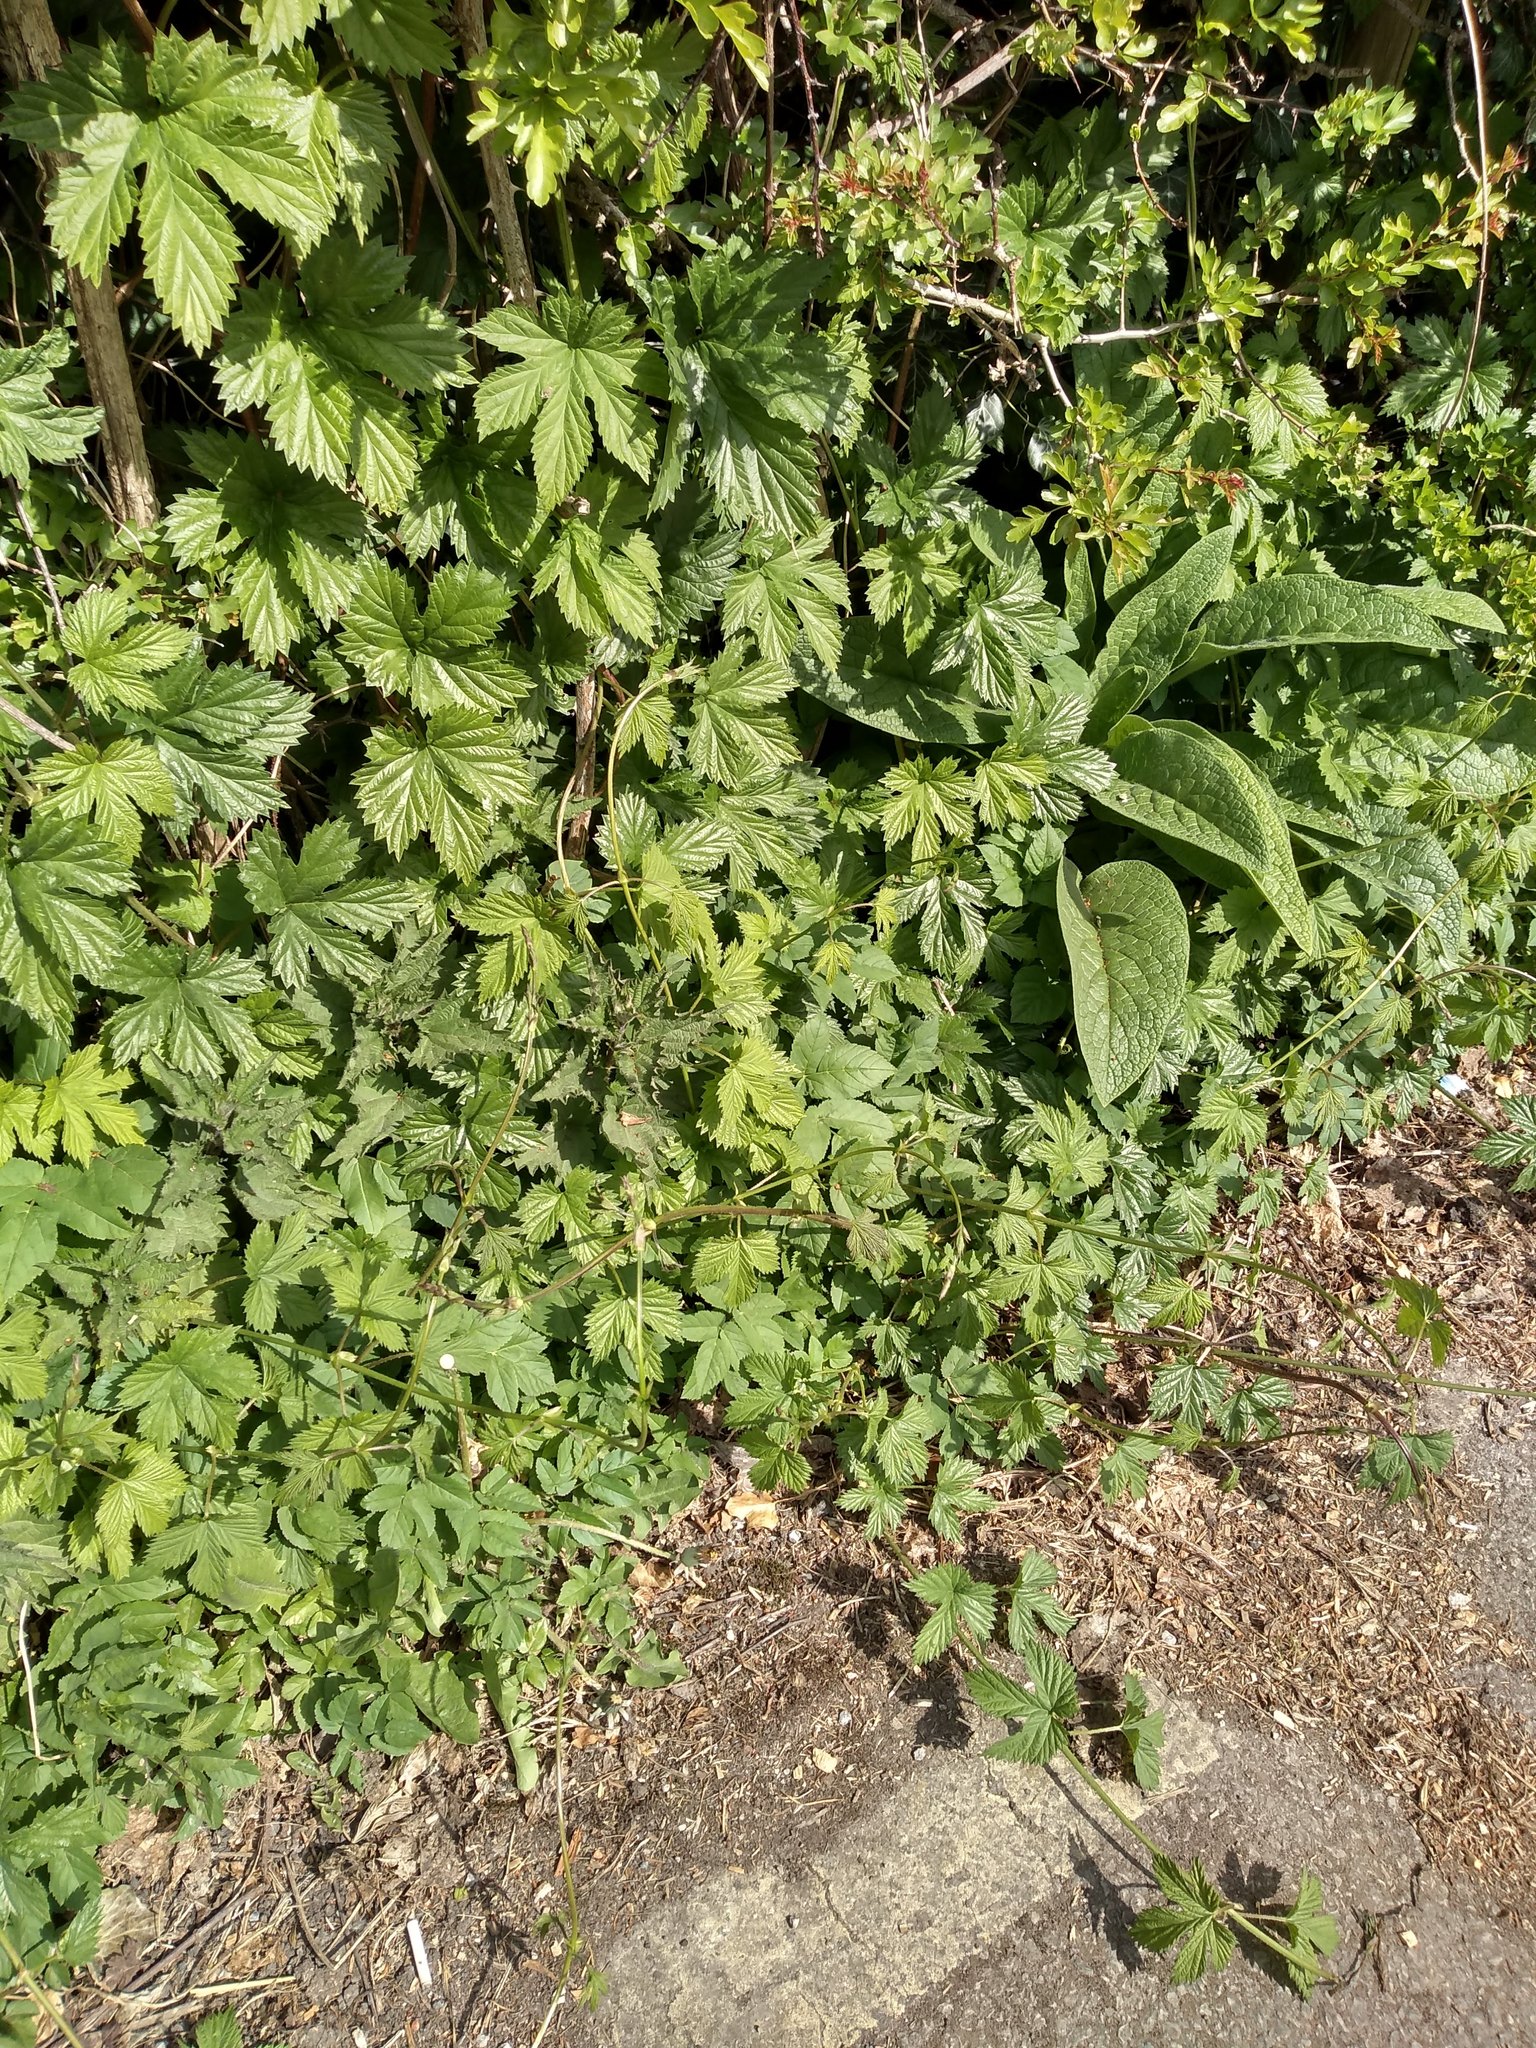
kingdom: Plantae
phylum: Tracheophyta
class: Magnoliopsida
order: Rosales
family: Cannabaceae
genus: Humulus
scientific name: Humulus lupulus
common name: Hop
